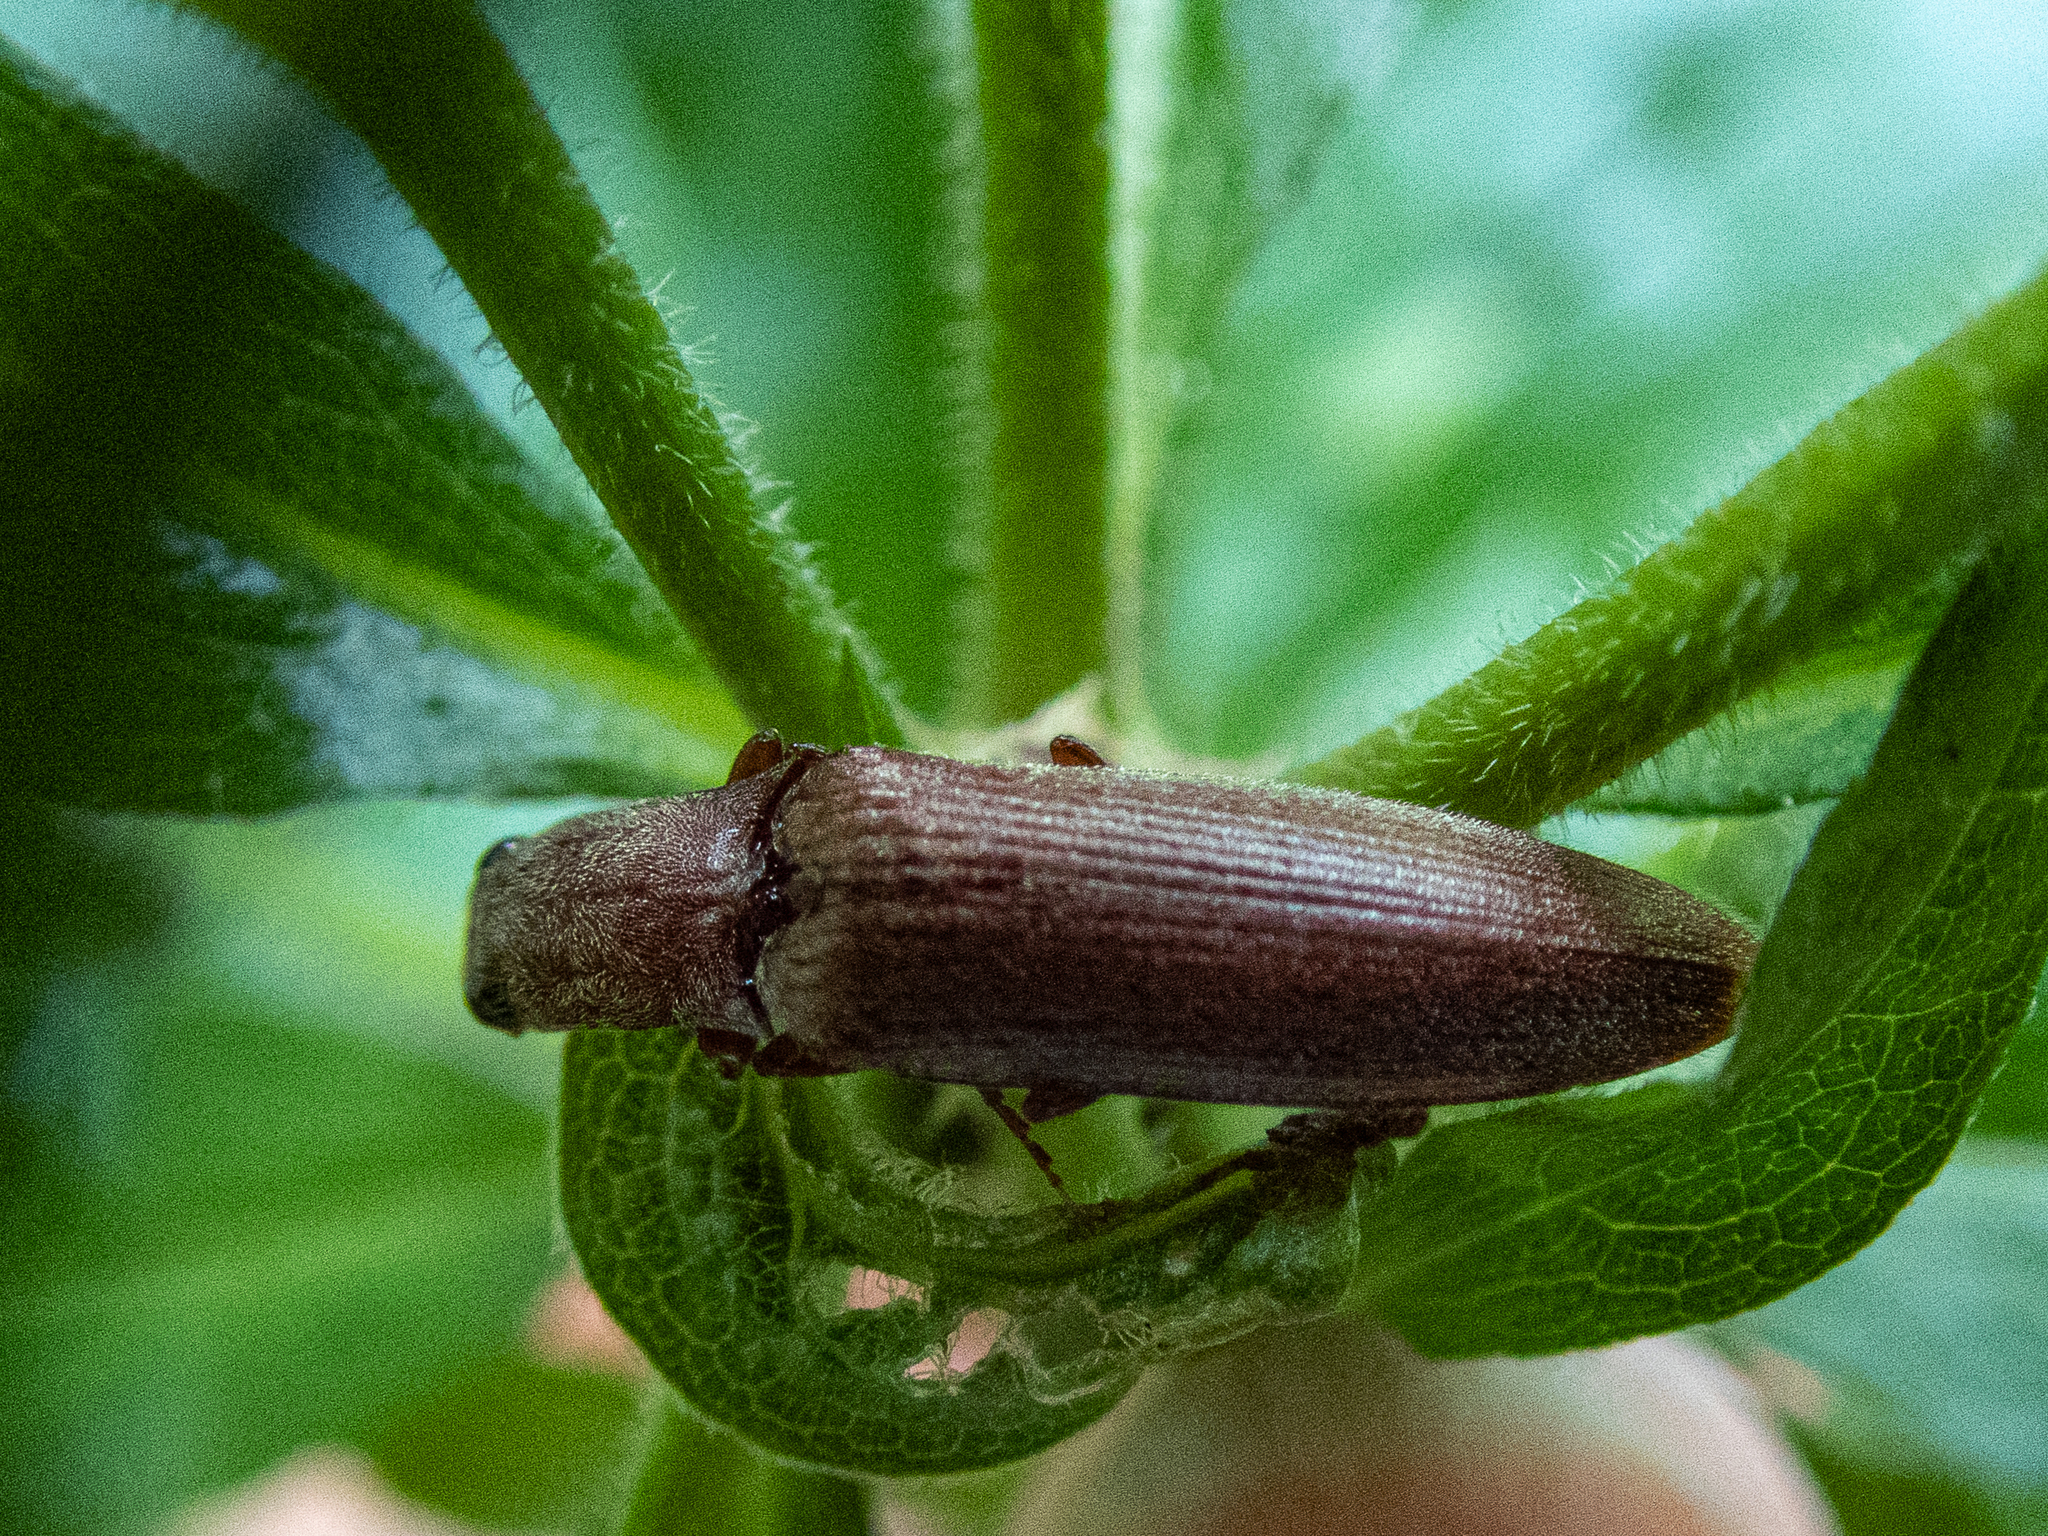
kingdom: Animalia
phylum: Arthropoda
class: Insecta
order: Coleoptera
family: Elateridae
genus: Proludius
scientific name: Proludius pyrros
